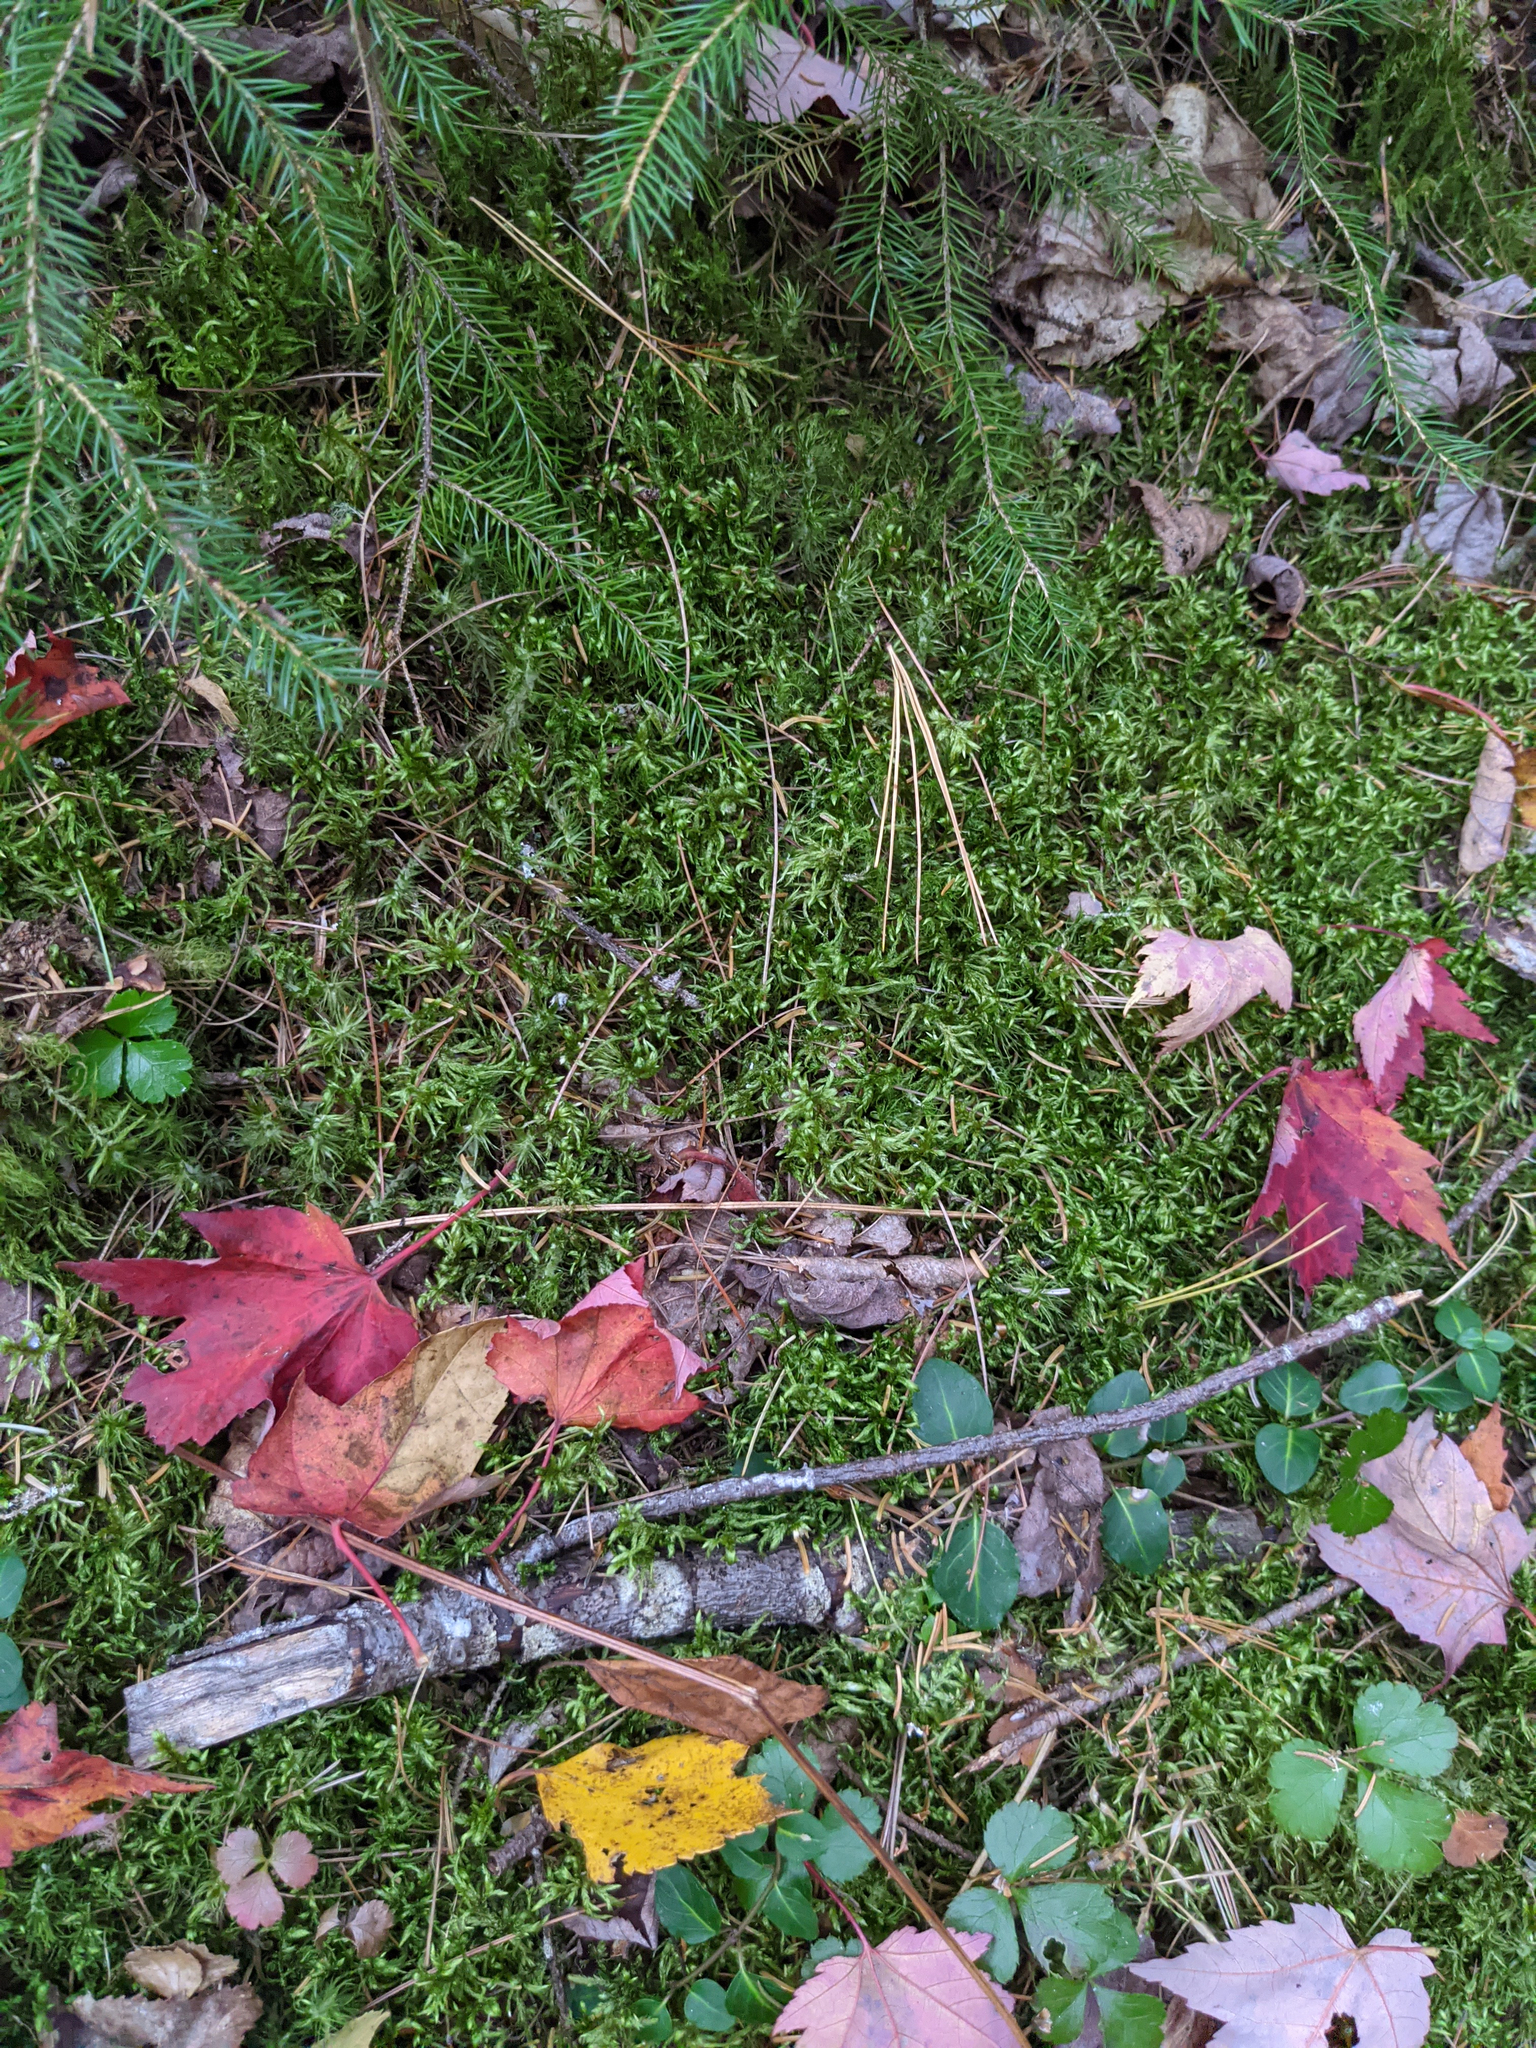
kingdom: Plantae
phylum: Tracheophyta
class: Magnoliopsida
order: Ranunculales
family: Ranunculaceae
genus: Coptis
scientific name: Coptis trifolia
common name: Canker-root
